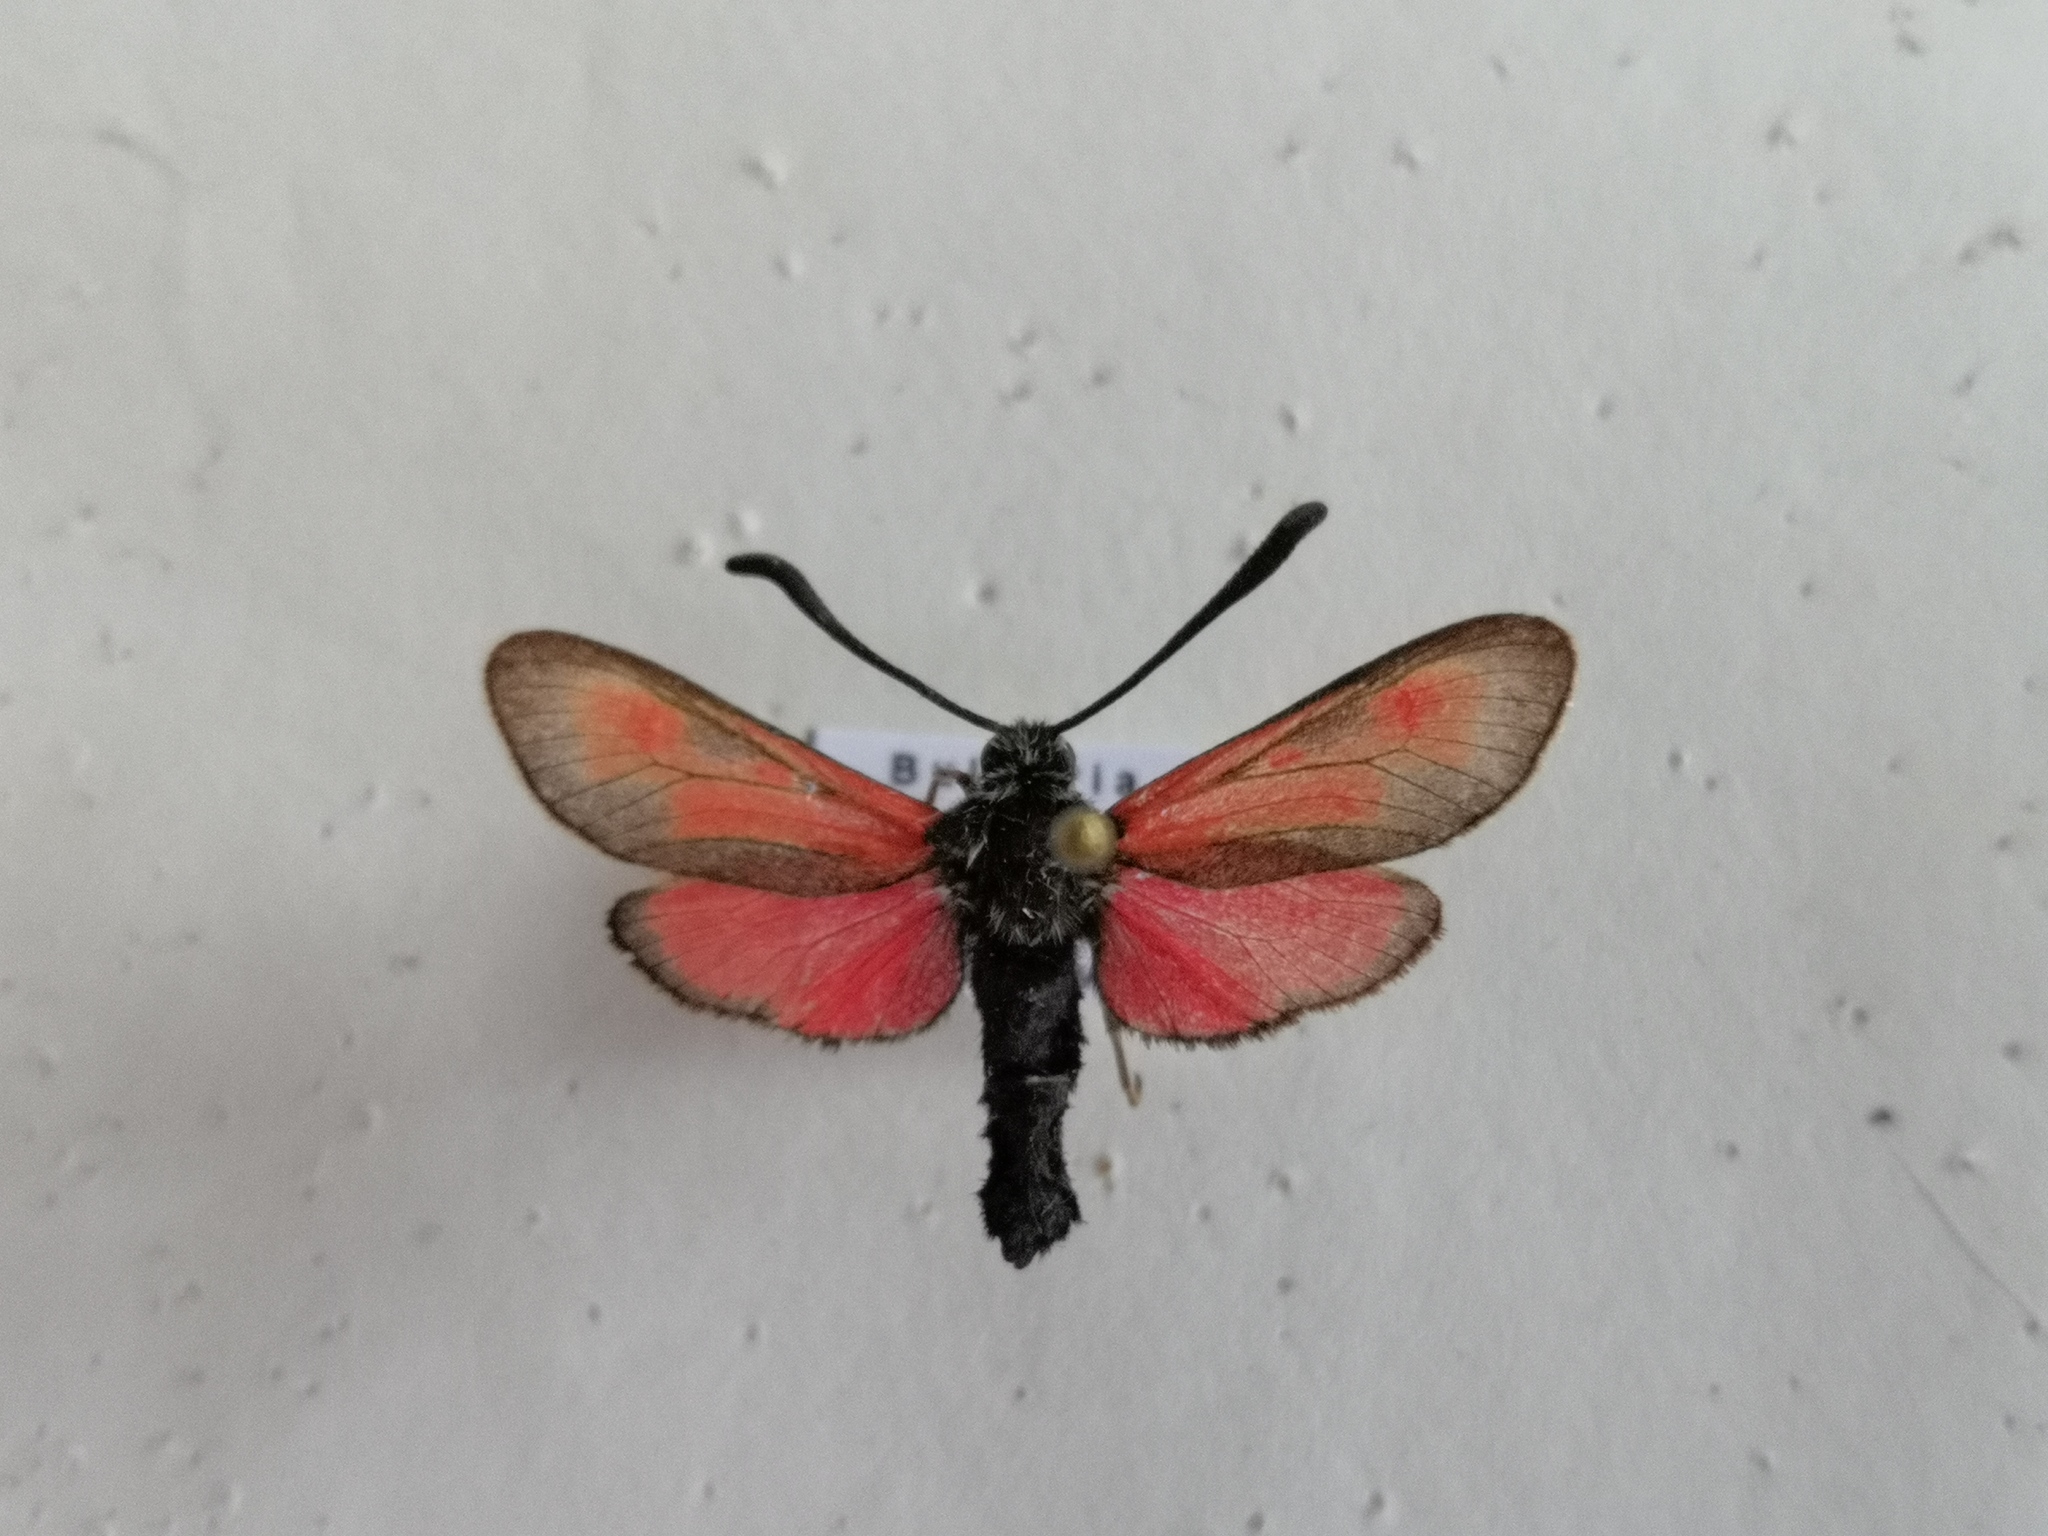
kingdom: Animalia
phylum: Arthropoda
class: Insecta
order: Lepidoptera
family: Zygaenidae
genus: Zygaena
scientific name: Zygaena punctum
